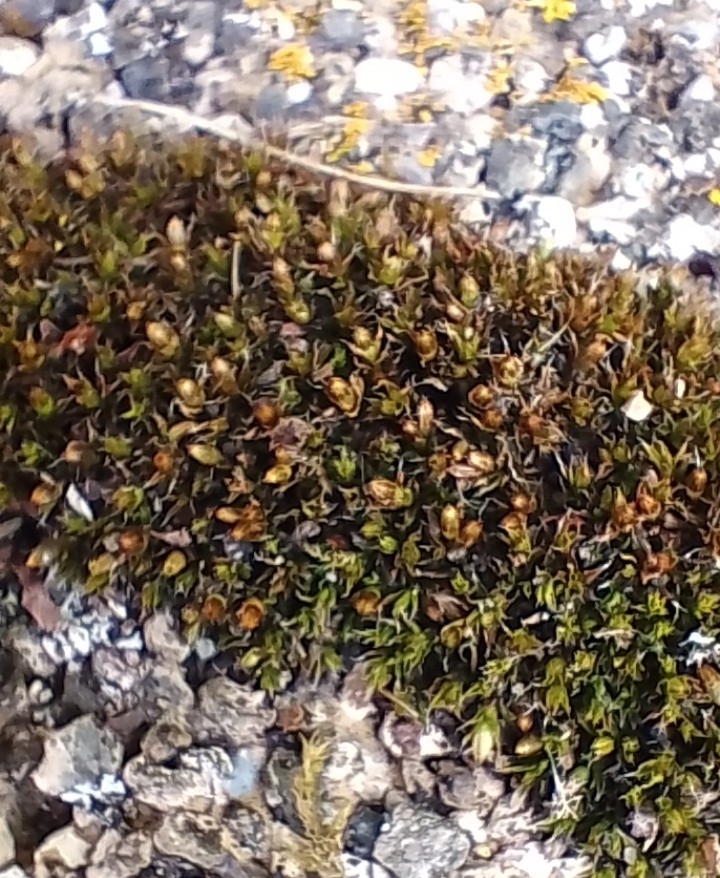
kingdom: Plantae
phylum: Bryophyta
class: Bryopsida
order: Orthotrichales
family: Orthotrichaceae
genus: Orthotrichum
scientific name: Orthotrichum diaphanum
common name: White-tipped bristle-moss
